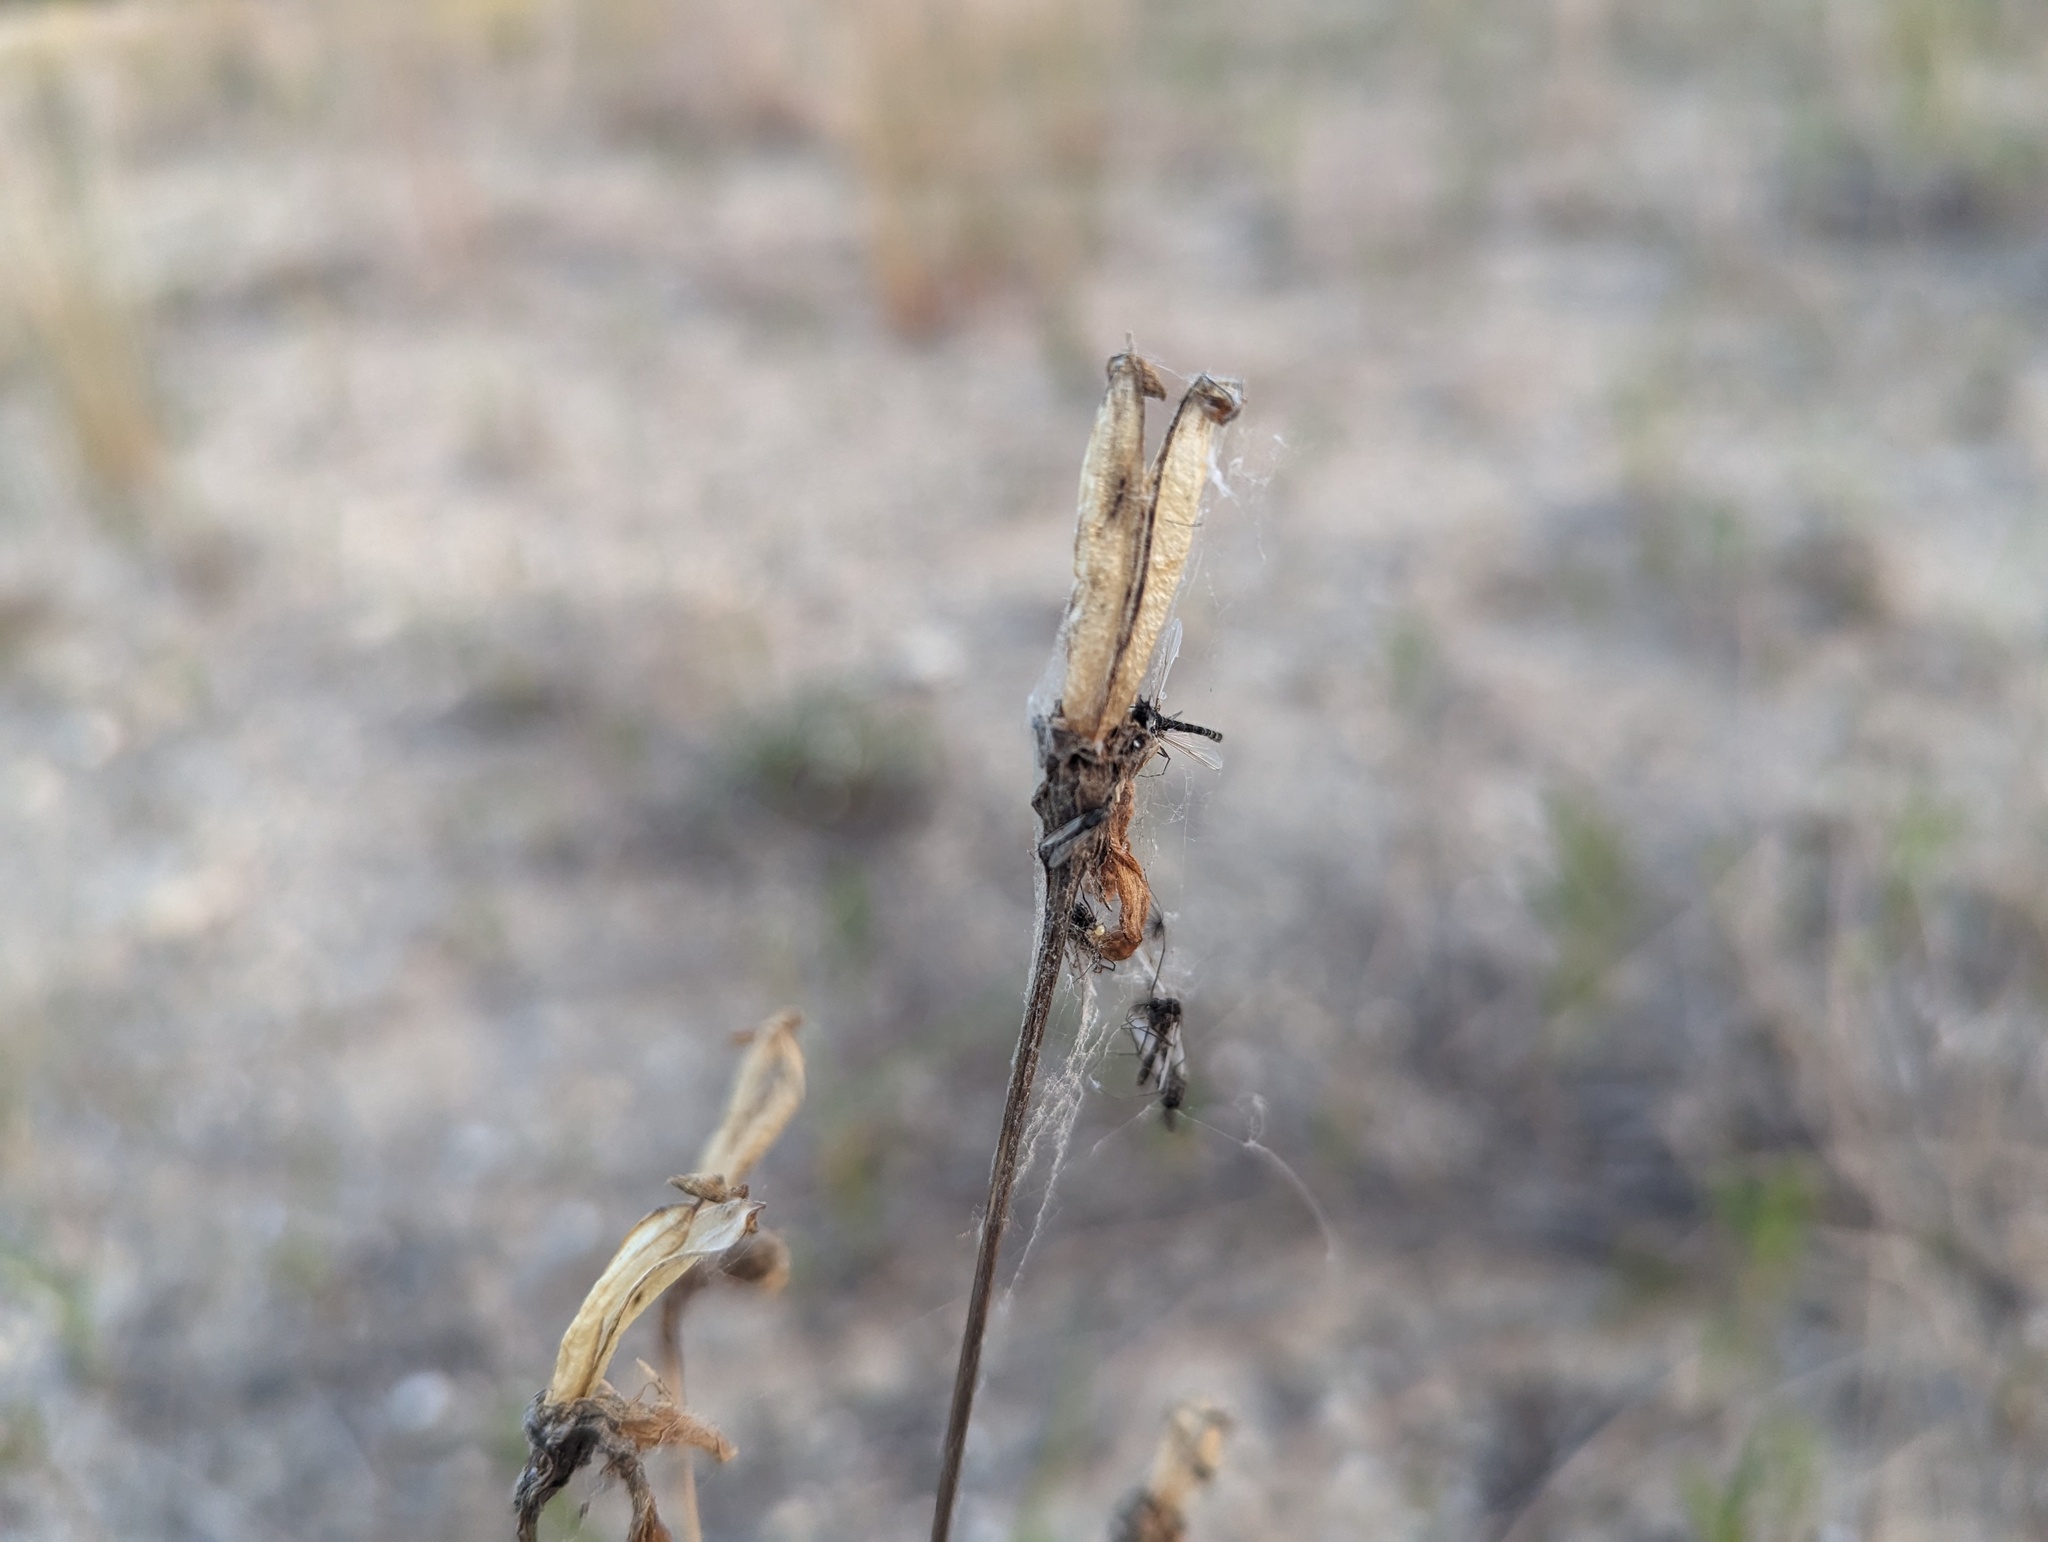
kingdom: Plantae
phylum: Tracheophyta
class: Liliopsida
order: Liliales
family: Liliaceae
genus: Lilium
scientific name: Lilium philadelphicum
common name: Red lily
